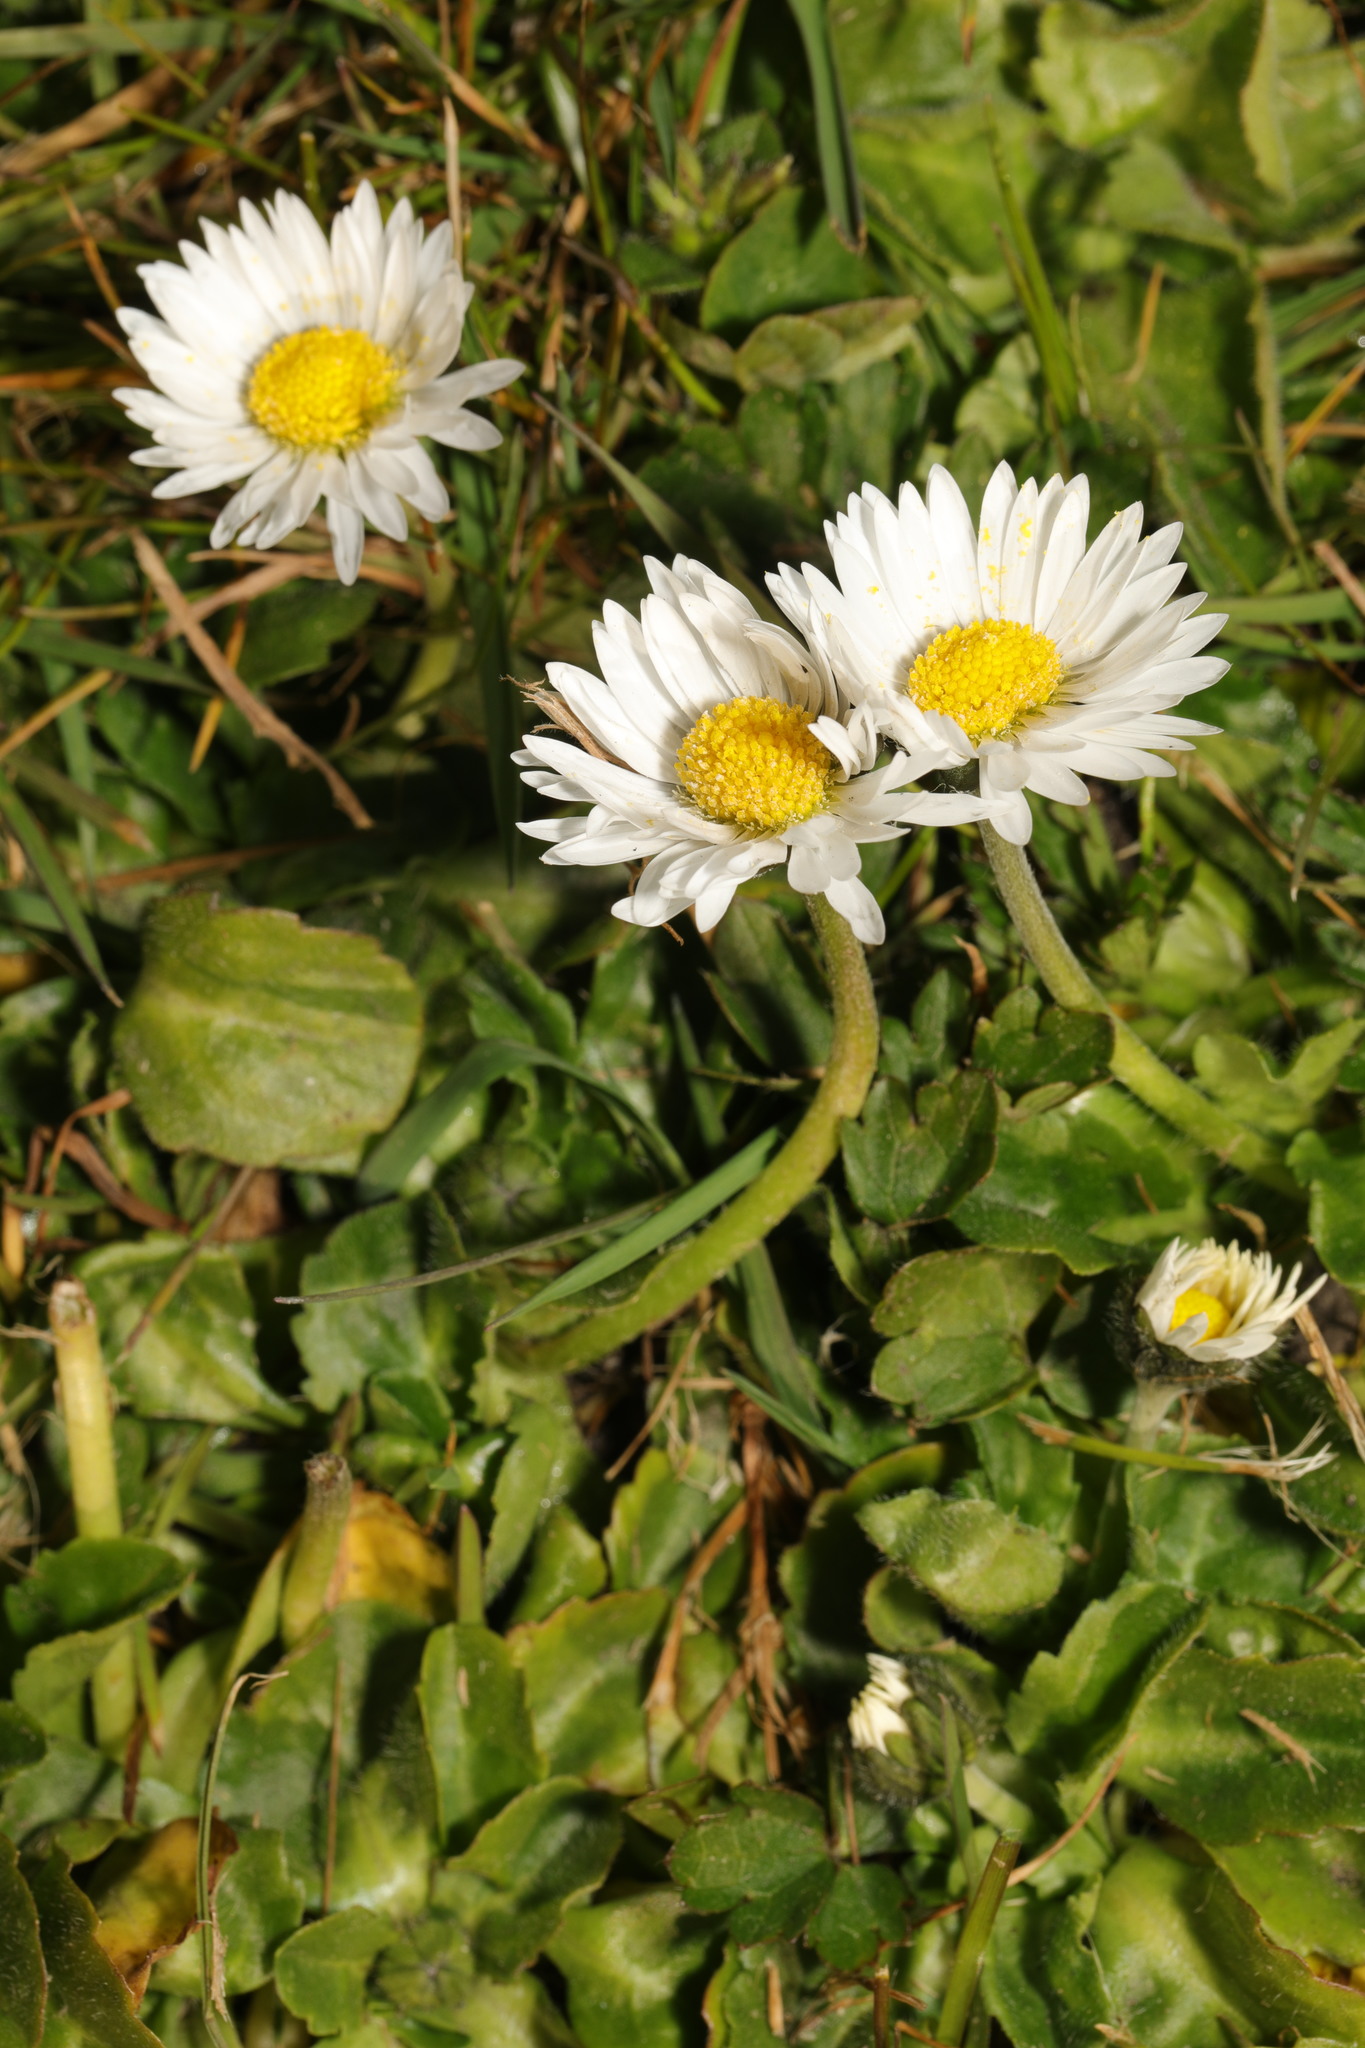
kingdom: Plantae
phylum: Tracheophyta
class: Magnoliopsida
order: Asterales
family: Asteraceae
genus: Bellis
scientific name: Bellis perennis
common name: Lawndaisy
